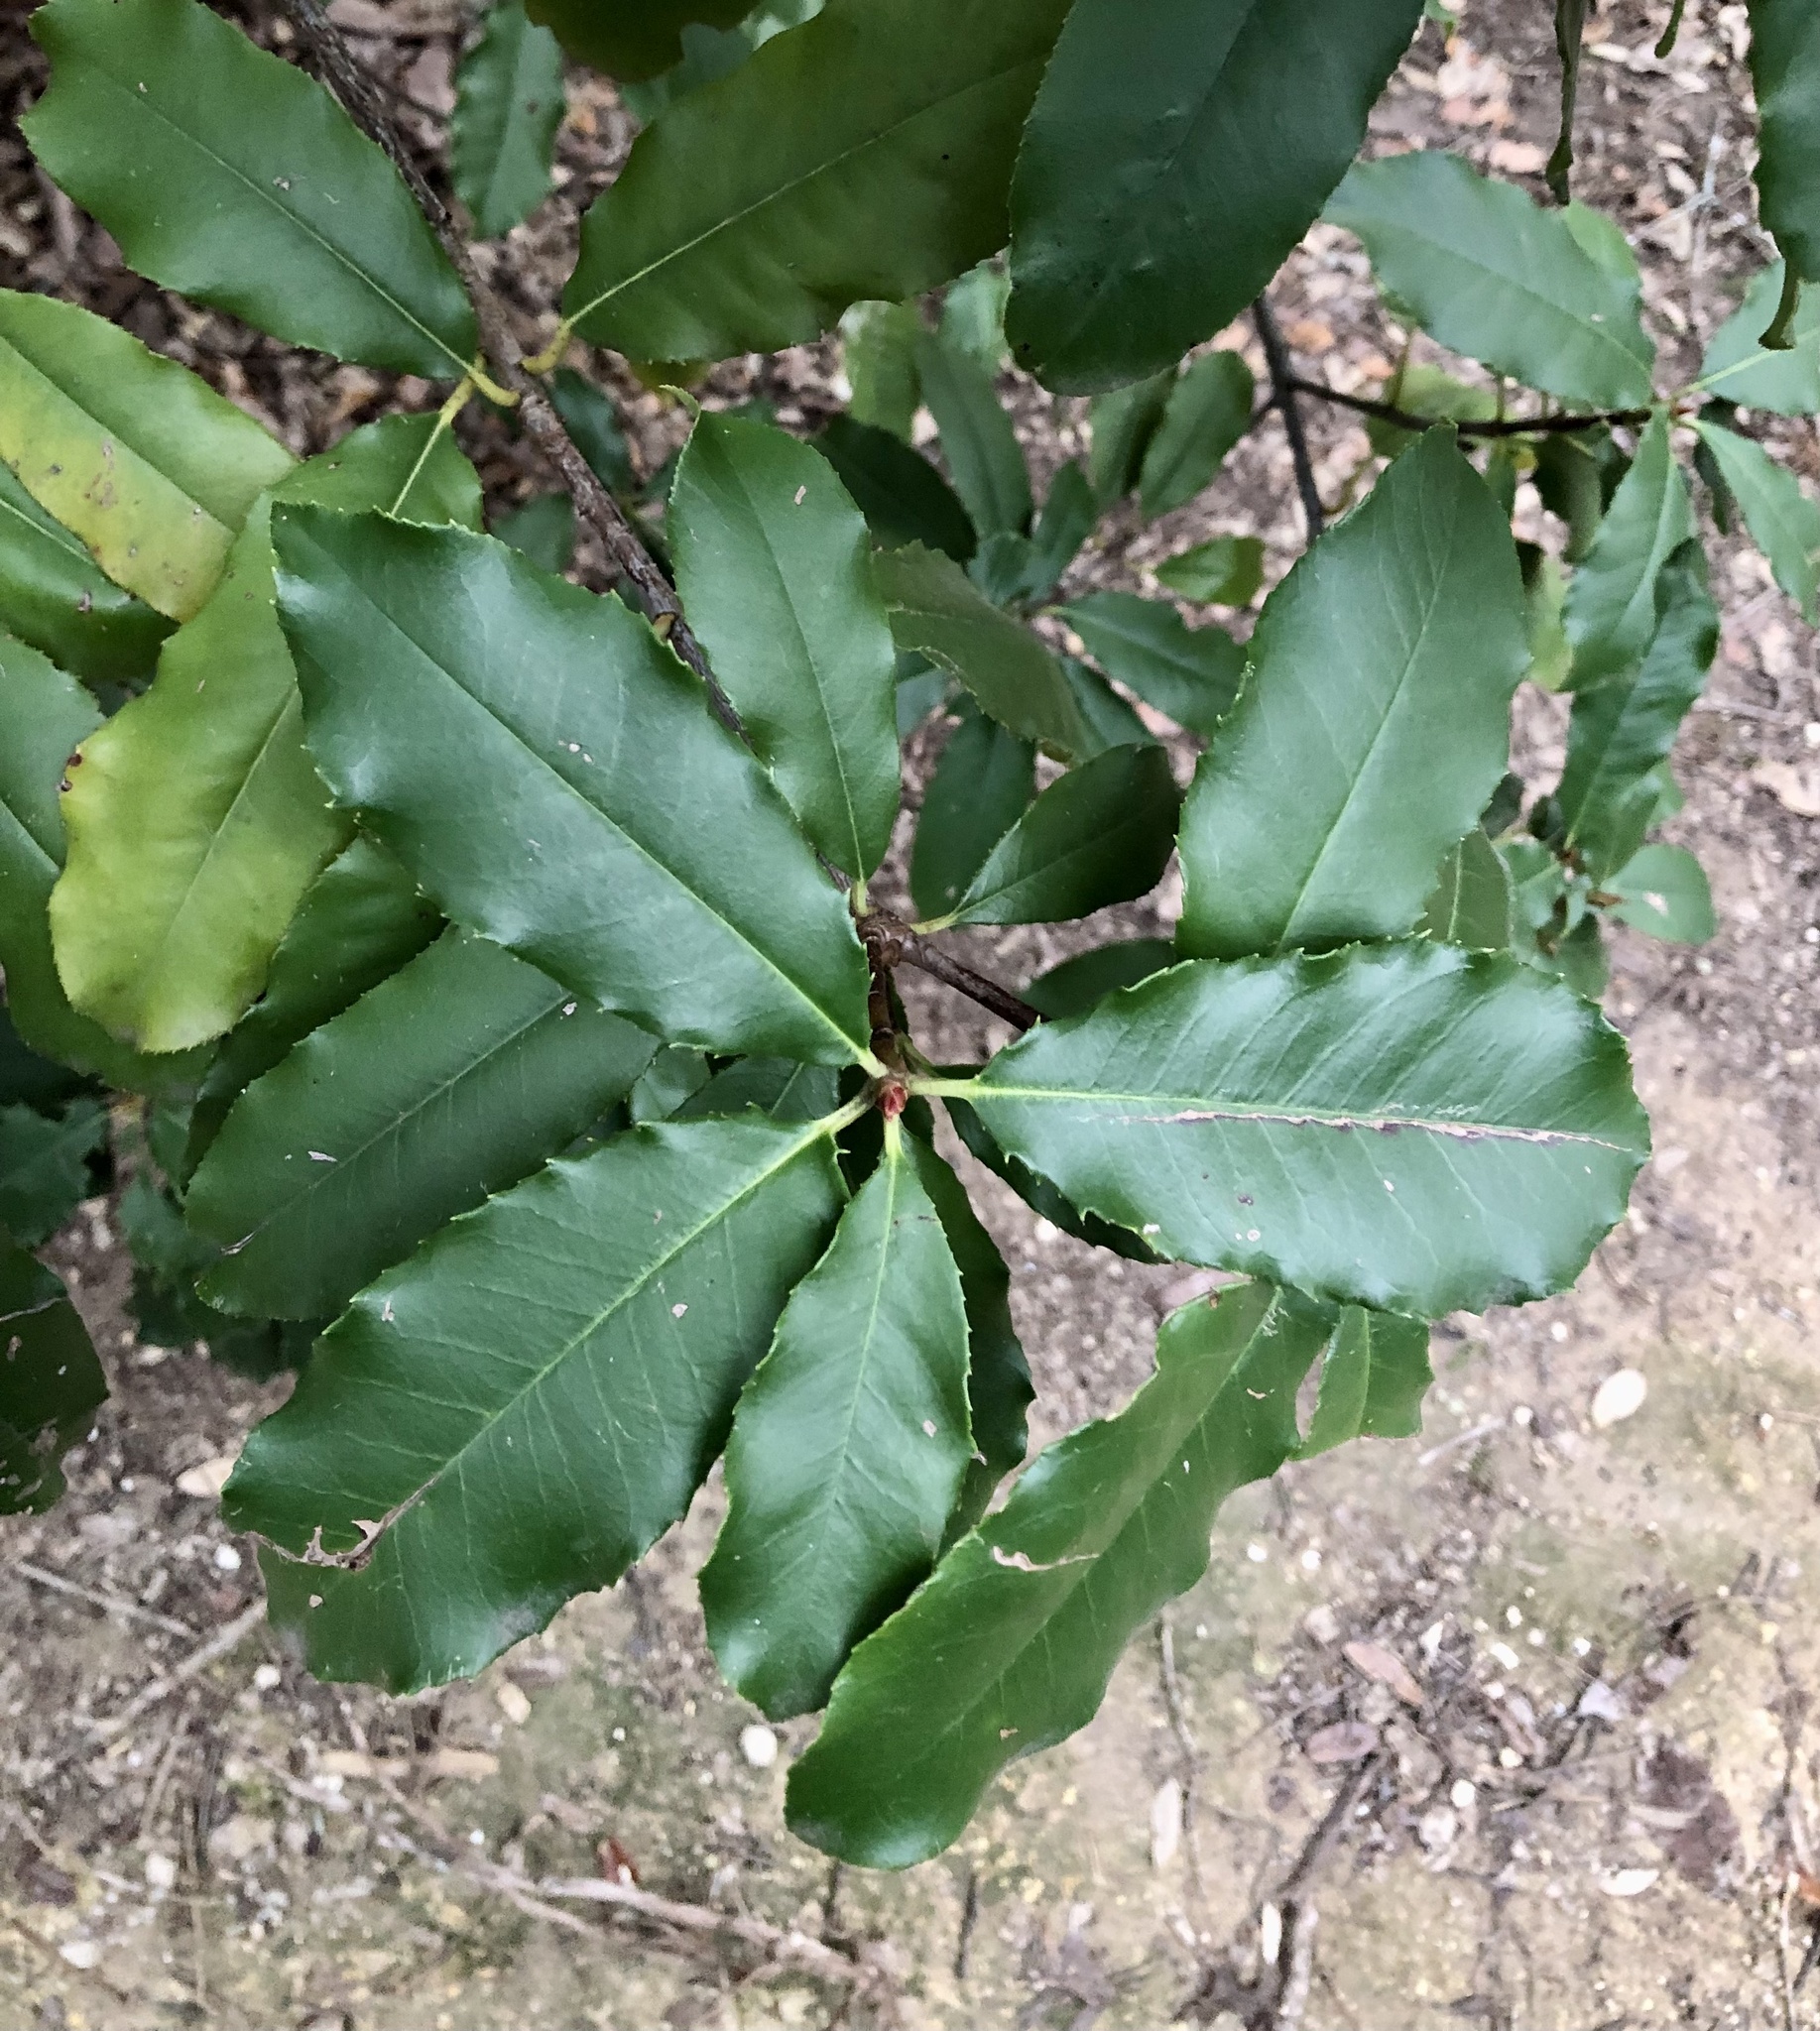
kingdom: Plantae
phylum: Tracheophyta
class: Magnoliopsida
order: Rosales
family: Rosaceae
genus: Photinia
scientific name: Photinia serratifolia
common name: Taiwanese photinia
